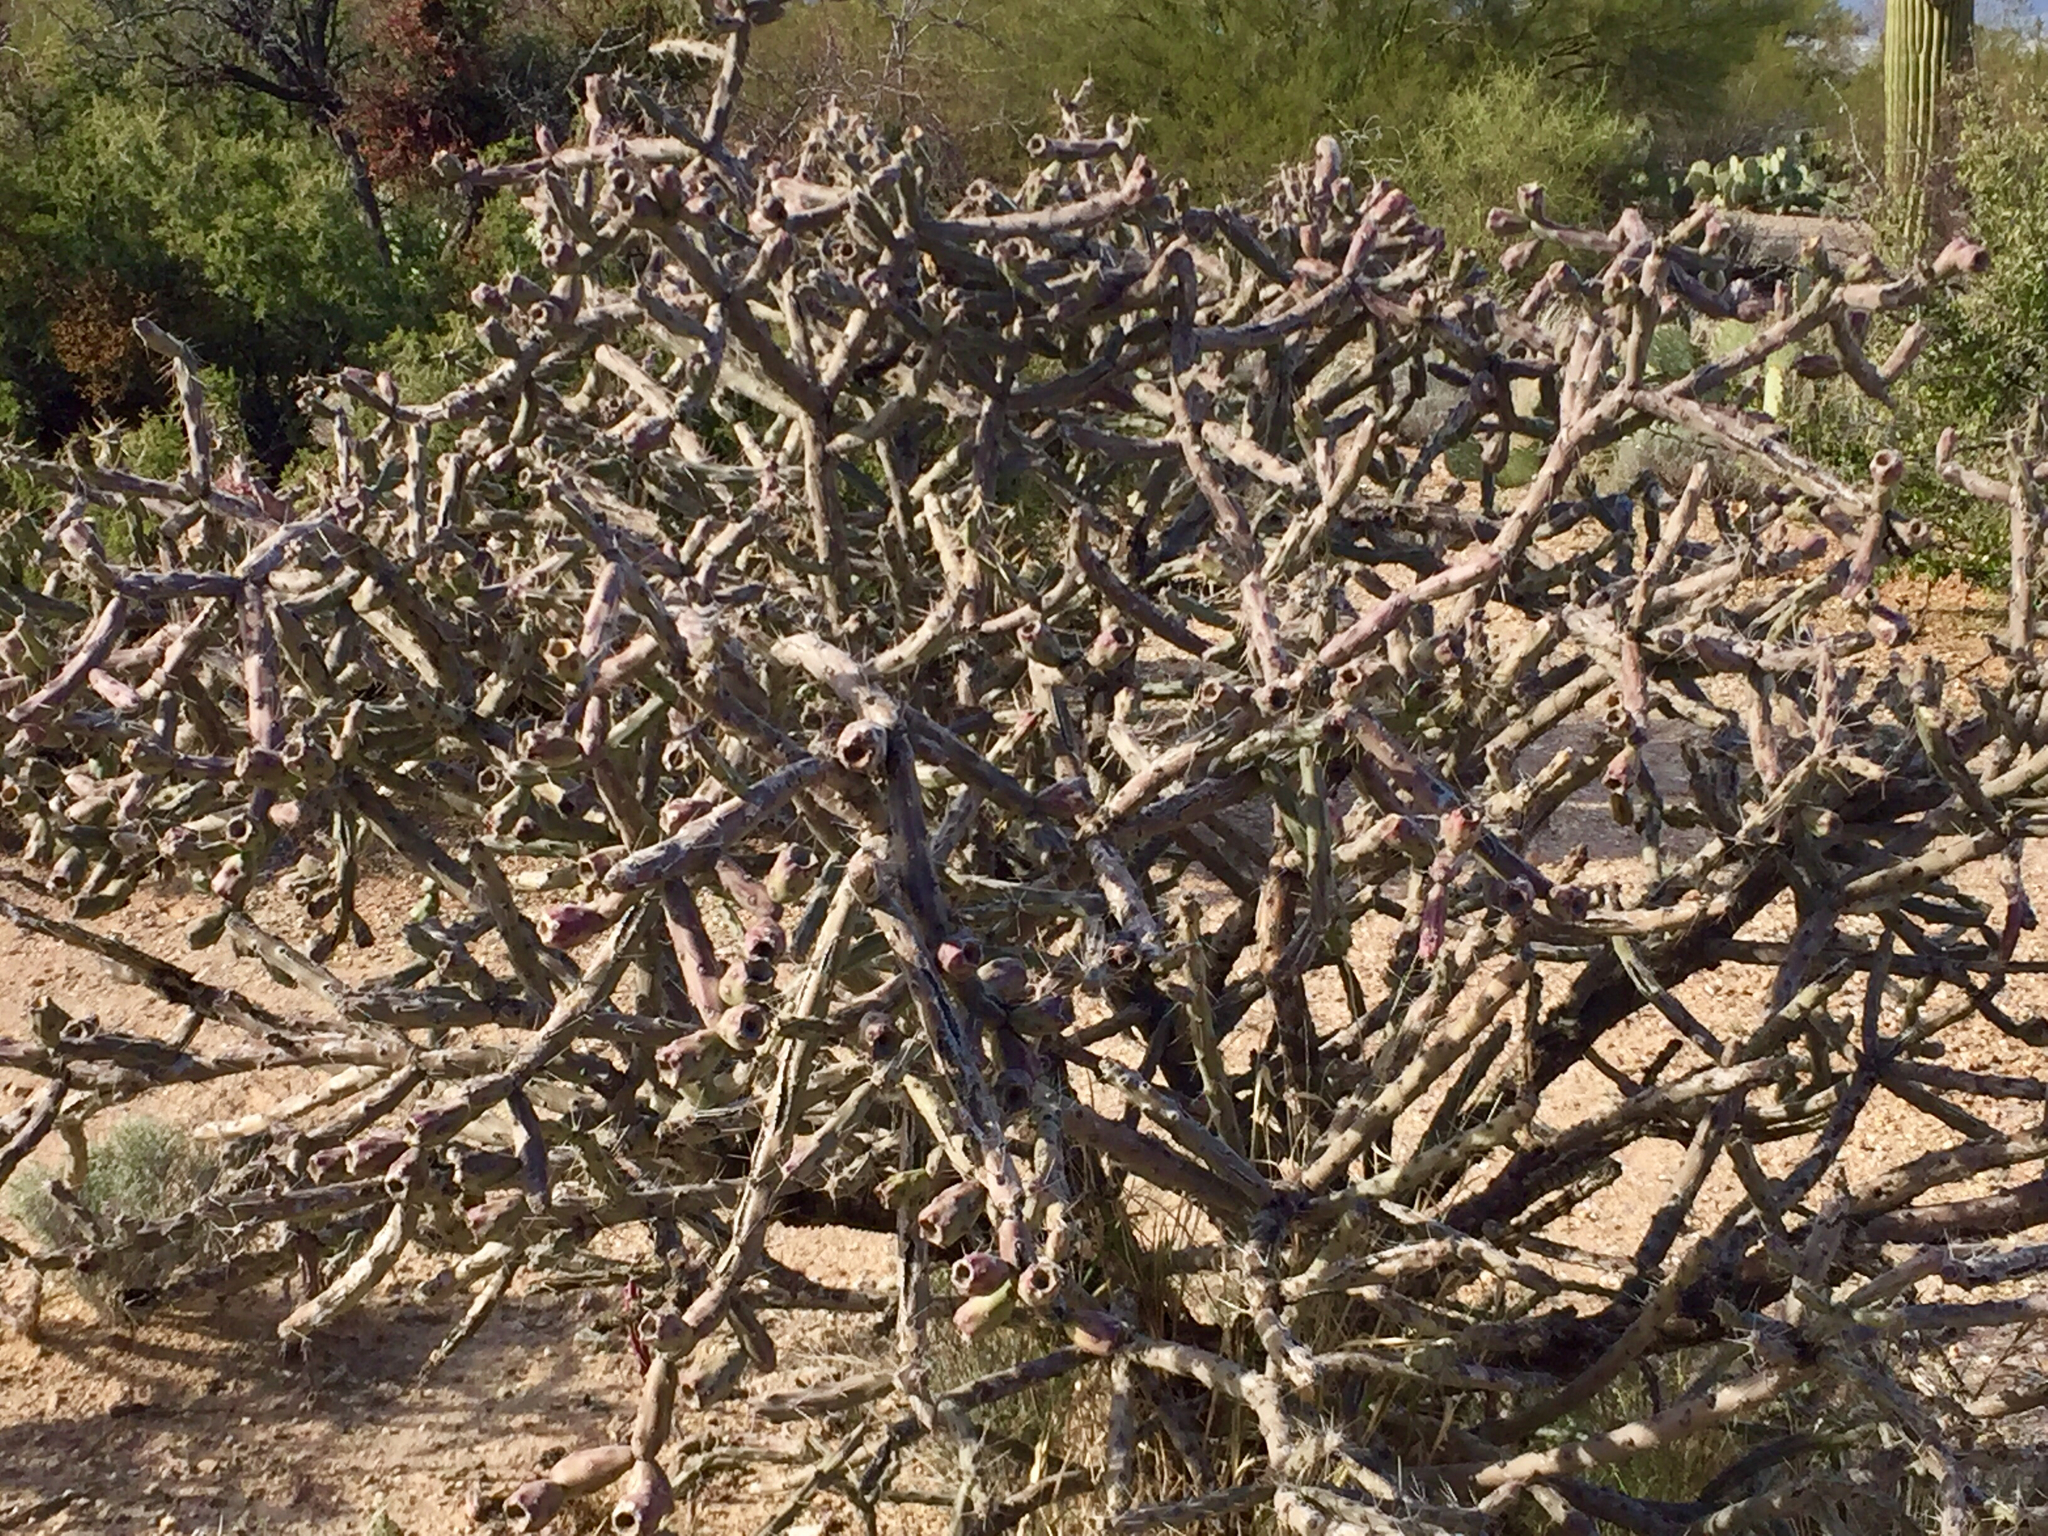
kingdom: Plantae
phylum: Tracheophyta
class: Magnoliopsida
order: Caryophyllales
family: Cactaceae
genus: Cylindropuntia
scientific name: Cylindropuntia arbuscula
